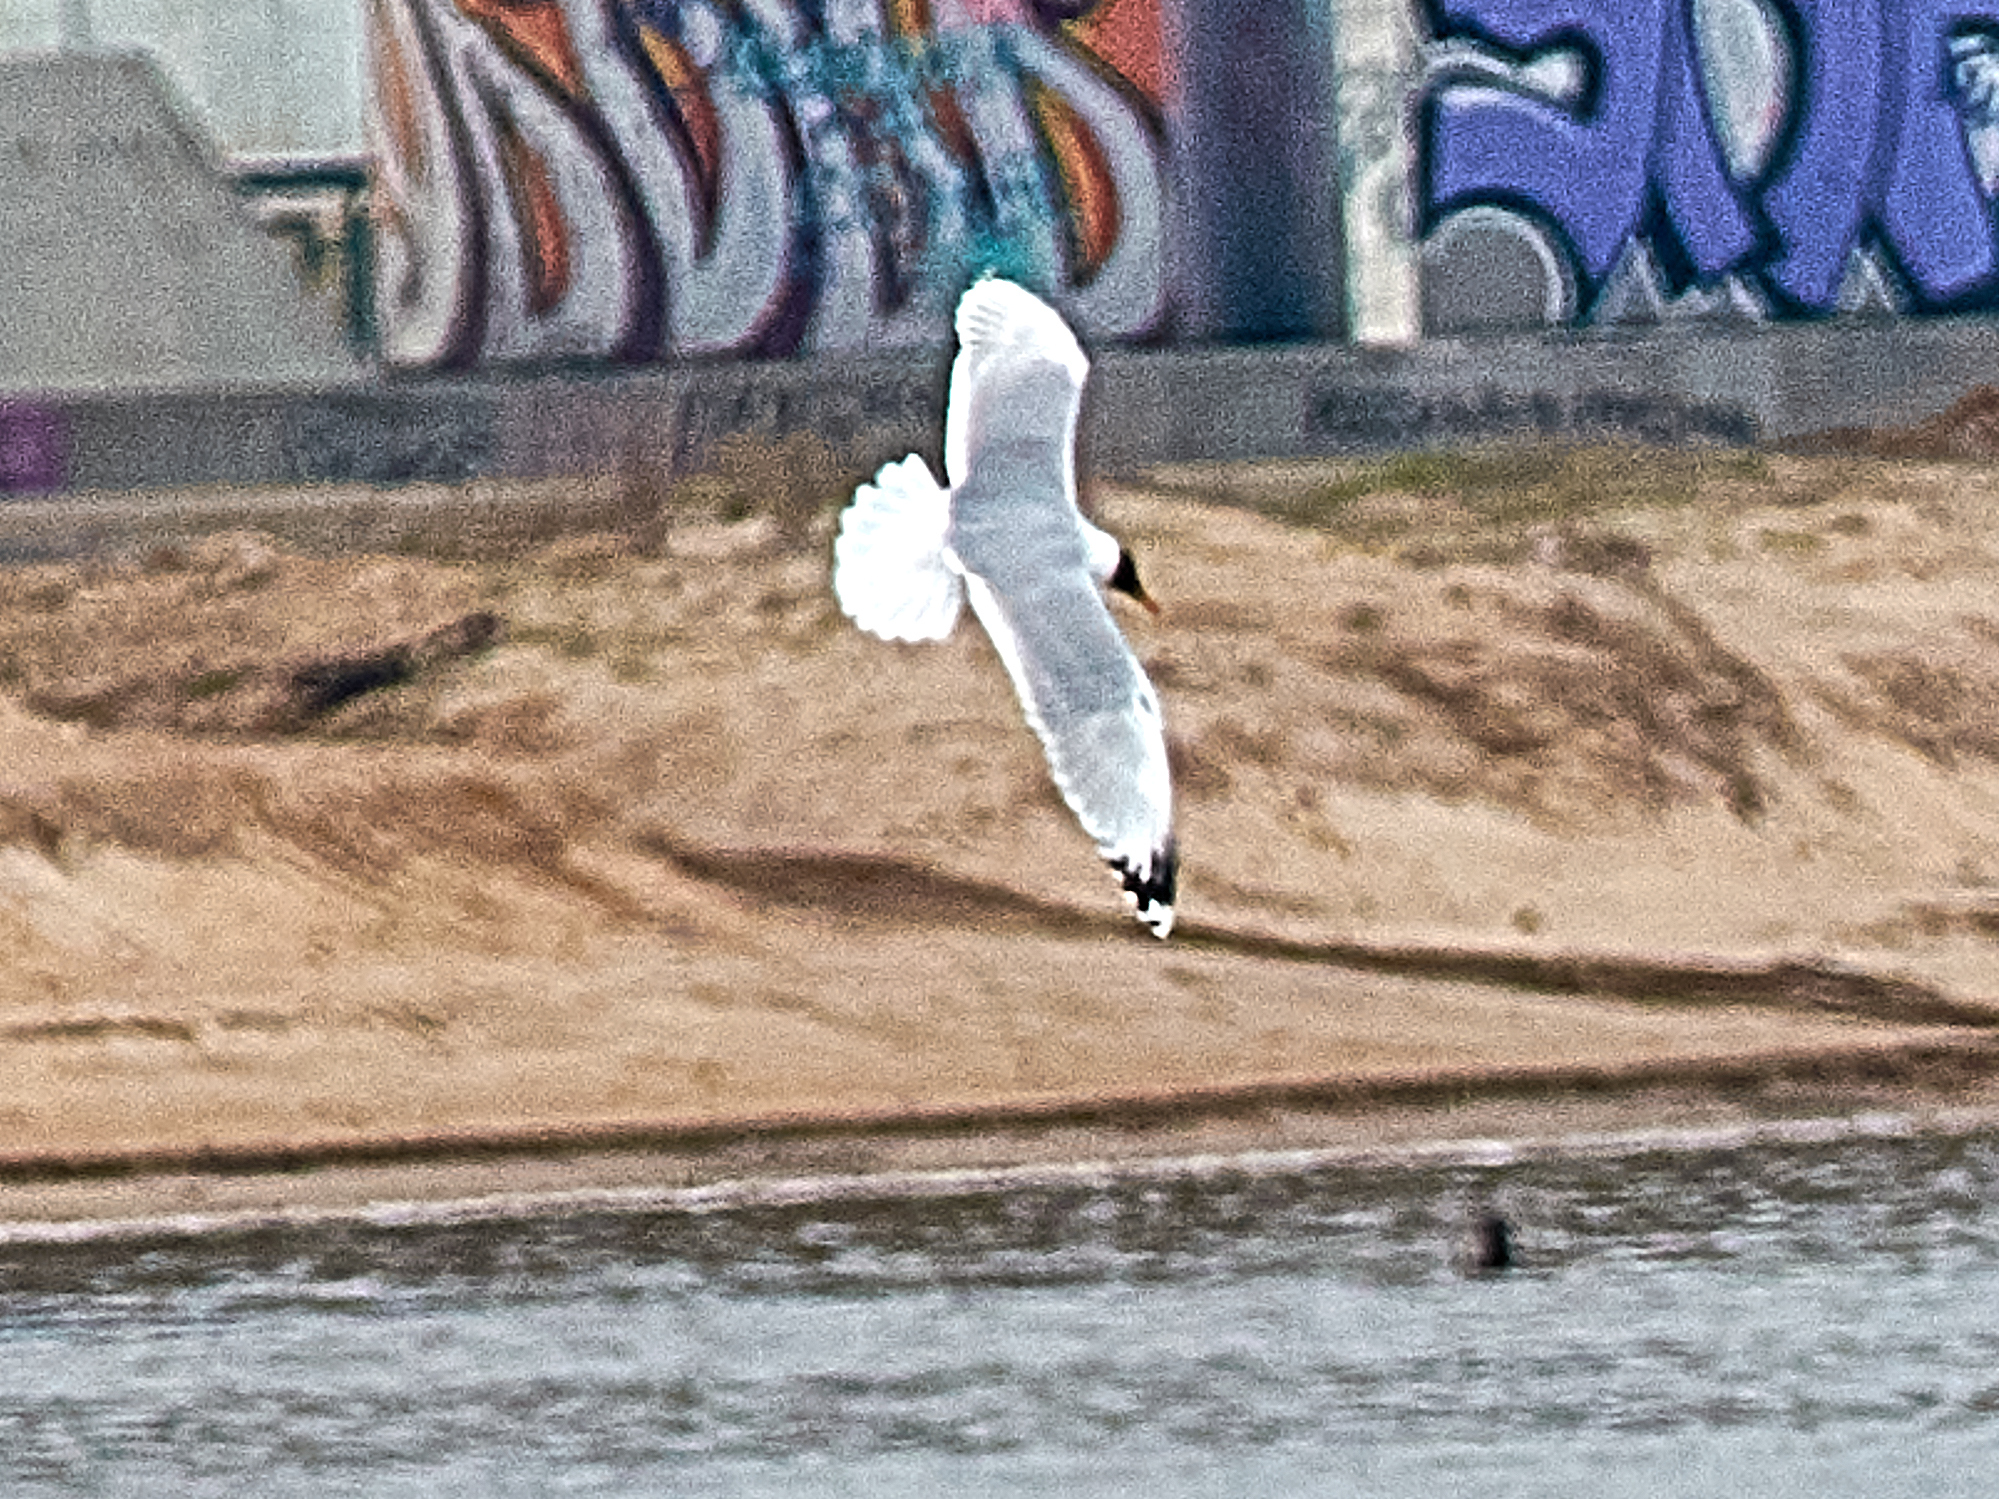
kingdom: Animalia
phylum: Chordata
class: Aves
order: Charadriiformes
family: Laridae
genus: Ichthyaetus
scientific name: Ichthyaetus ichthyaetus
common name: Pallas's gull
